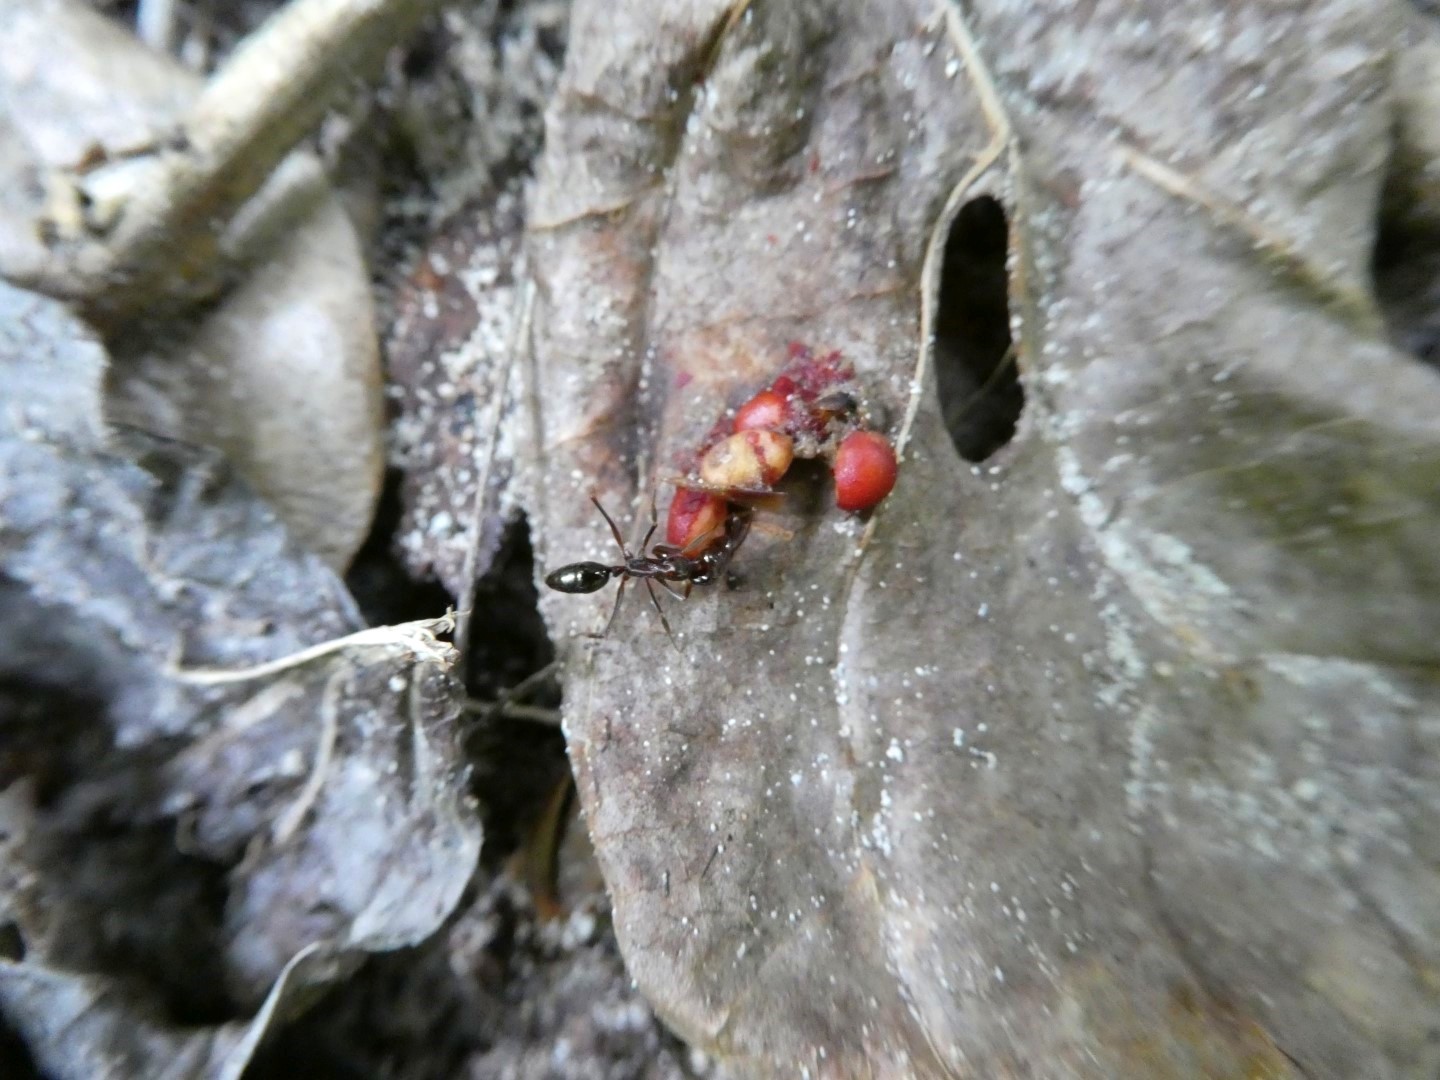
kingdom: Animalia
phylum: Arthropoda
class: Insecta
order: Hymenoptera
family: Formicidae
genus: Odontomachus
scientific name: Odontomachus simillimus
